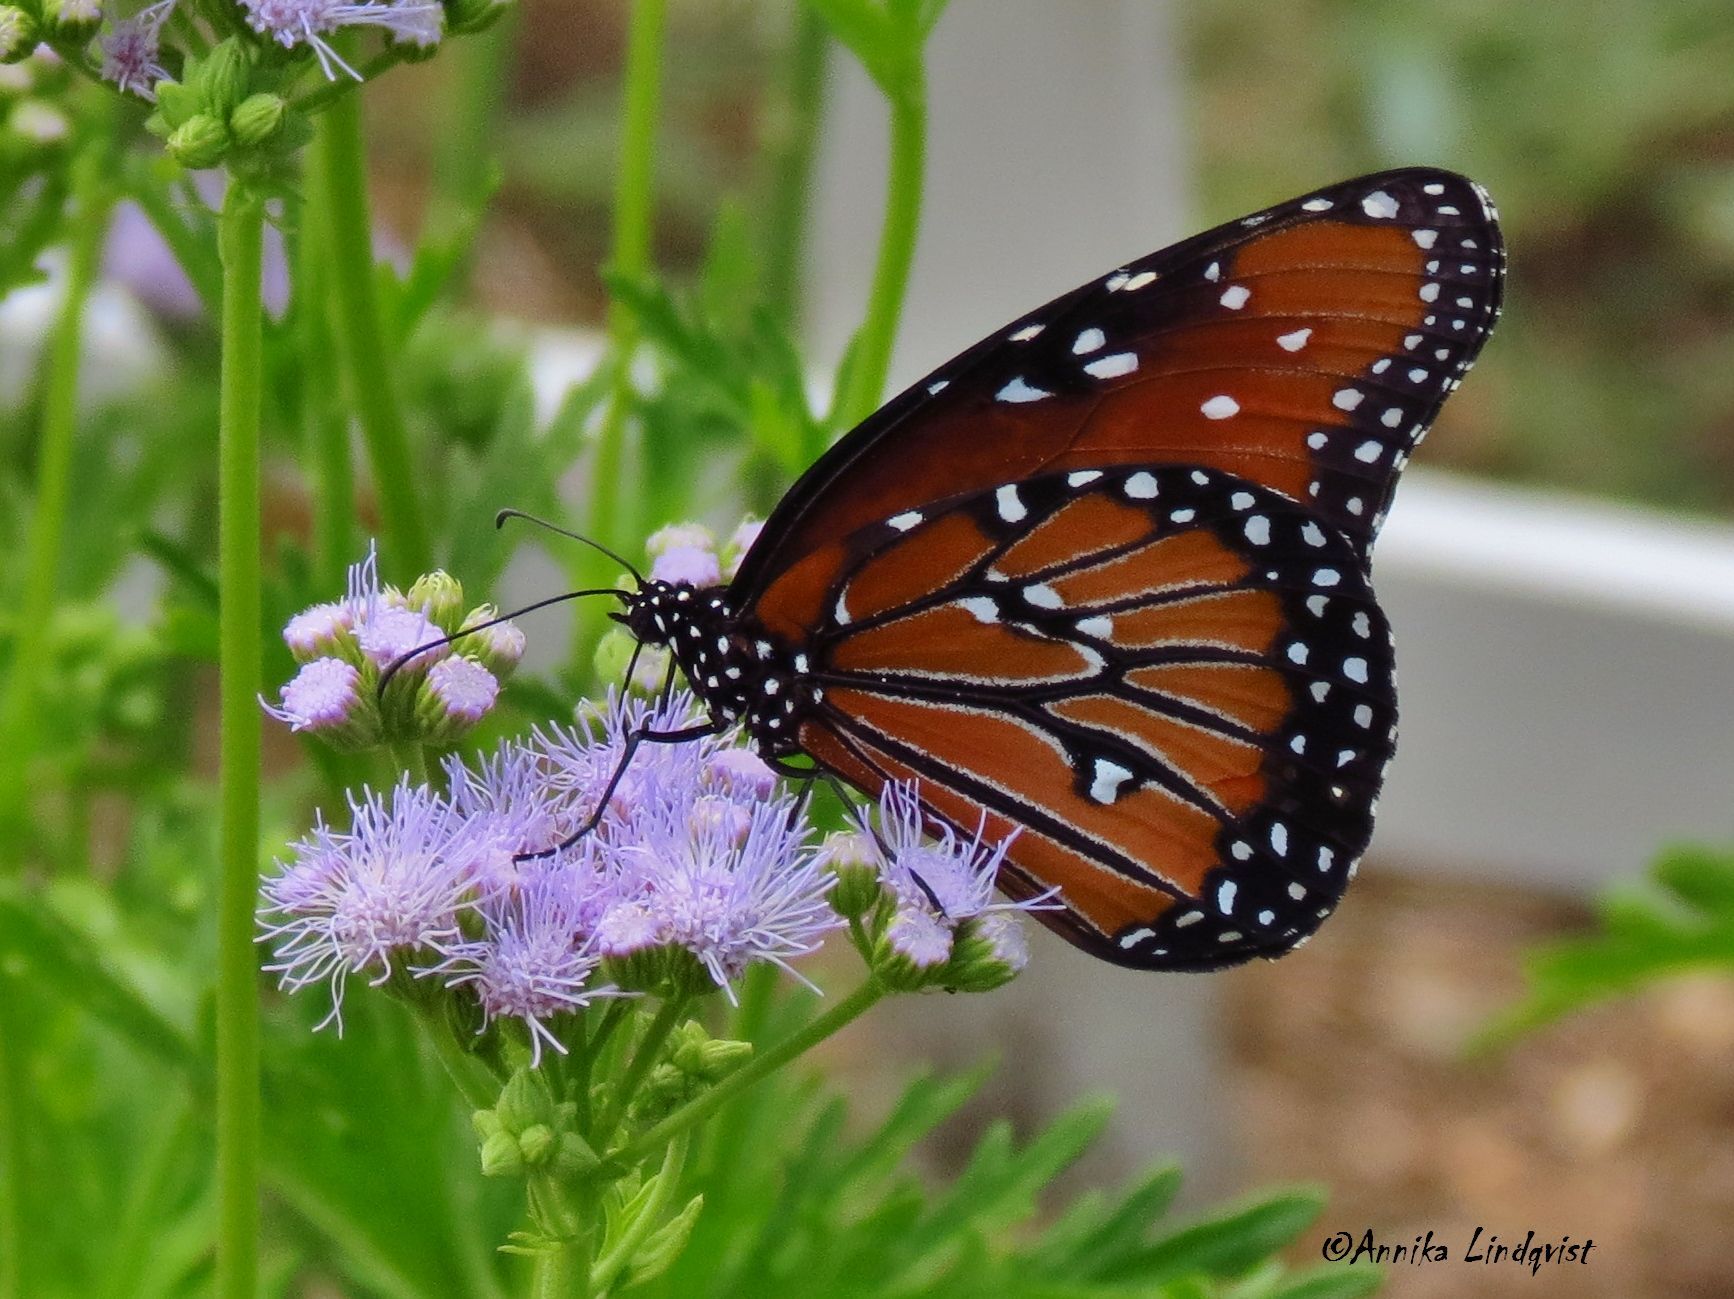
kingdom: Animalia
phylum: Arthropoda
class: Insecta
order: Lepidoptera
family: Nymphalidae
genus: Danaus
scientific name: Danaus gilippus
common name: Queen
